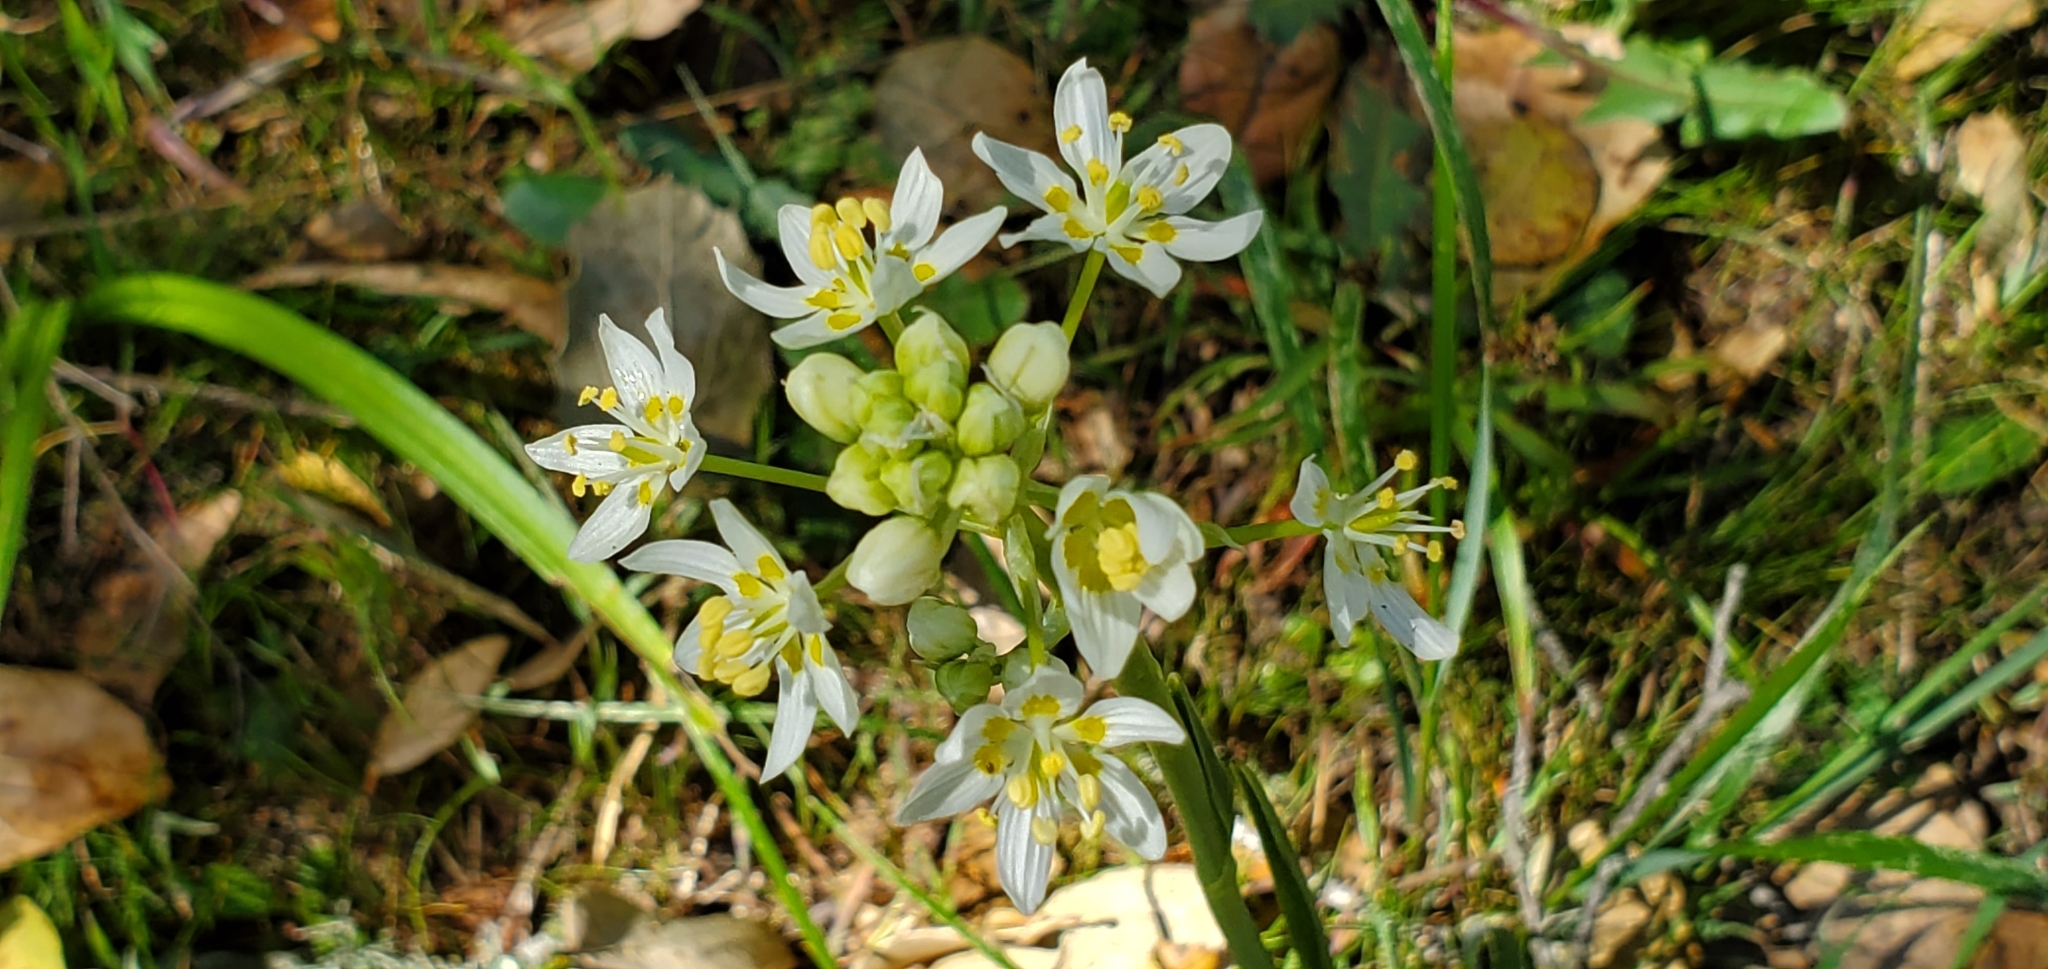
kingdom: Plantae
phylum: Tracheophyta
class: Liliopsida
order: Liliales
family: Melanthiaceae
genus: Toxicoscordion
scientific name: Toxicoscordion fremontii
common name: Fremont's death camas
